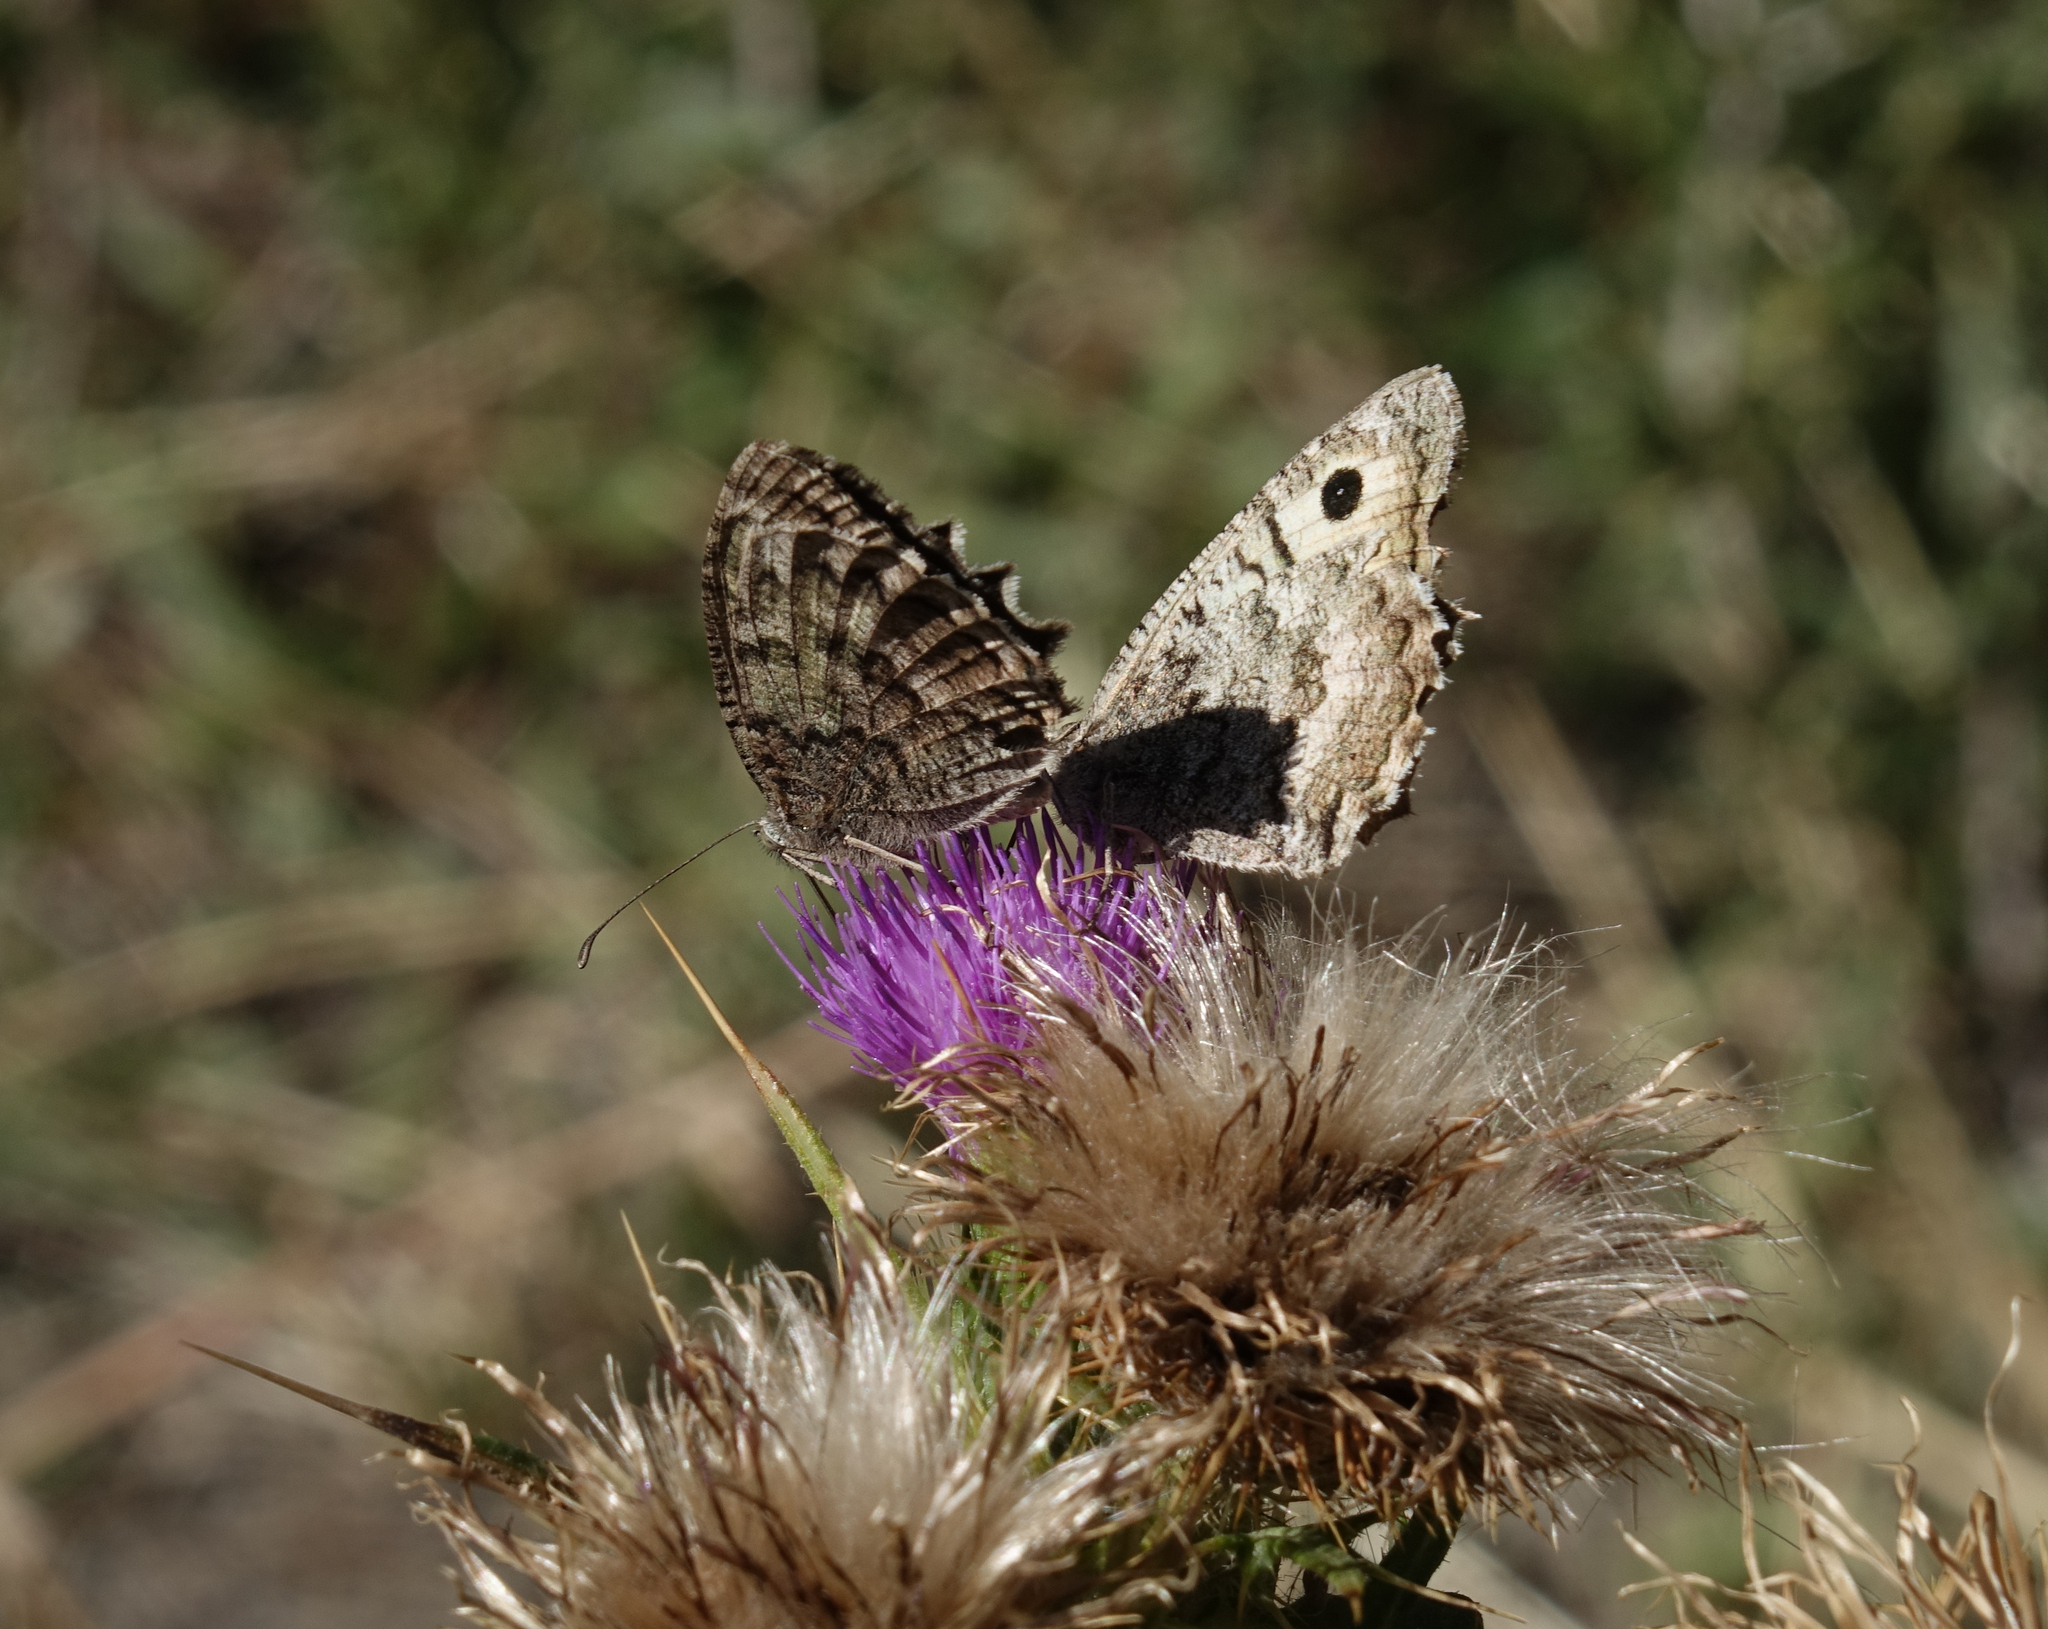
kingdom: Animalia
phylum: Arthropoda
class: Insecta
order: Lepidoptera
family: Nymphalidae
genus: Pseudochazara
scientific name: Pseudochazara daghestana
